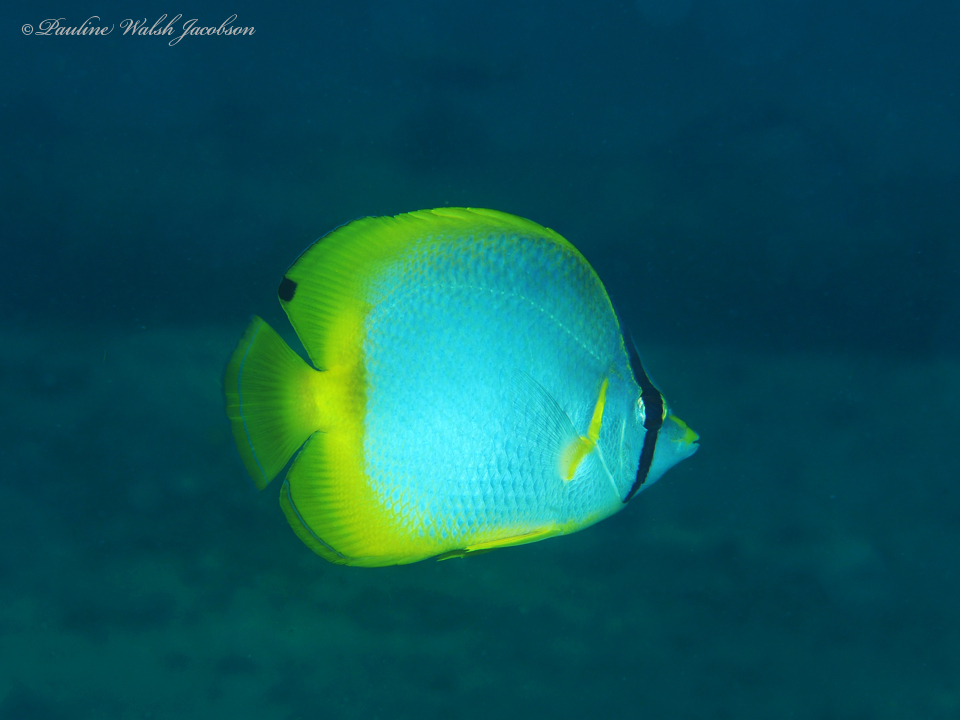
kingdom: Animalia
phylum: Chordata
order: Perciformes
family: Chaetodontidae
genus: Chaetodon
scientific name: Chaetodon ocellatus
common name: Spotfin butterflyfish
